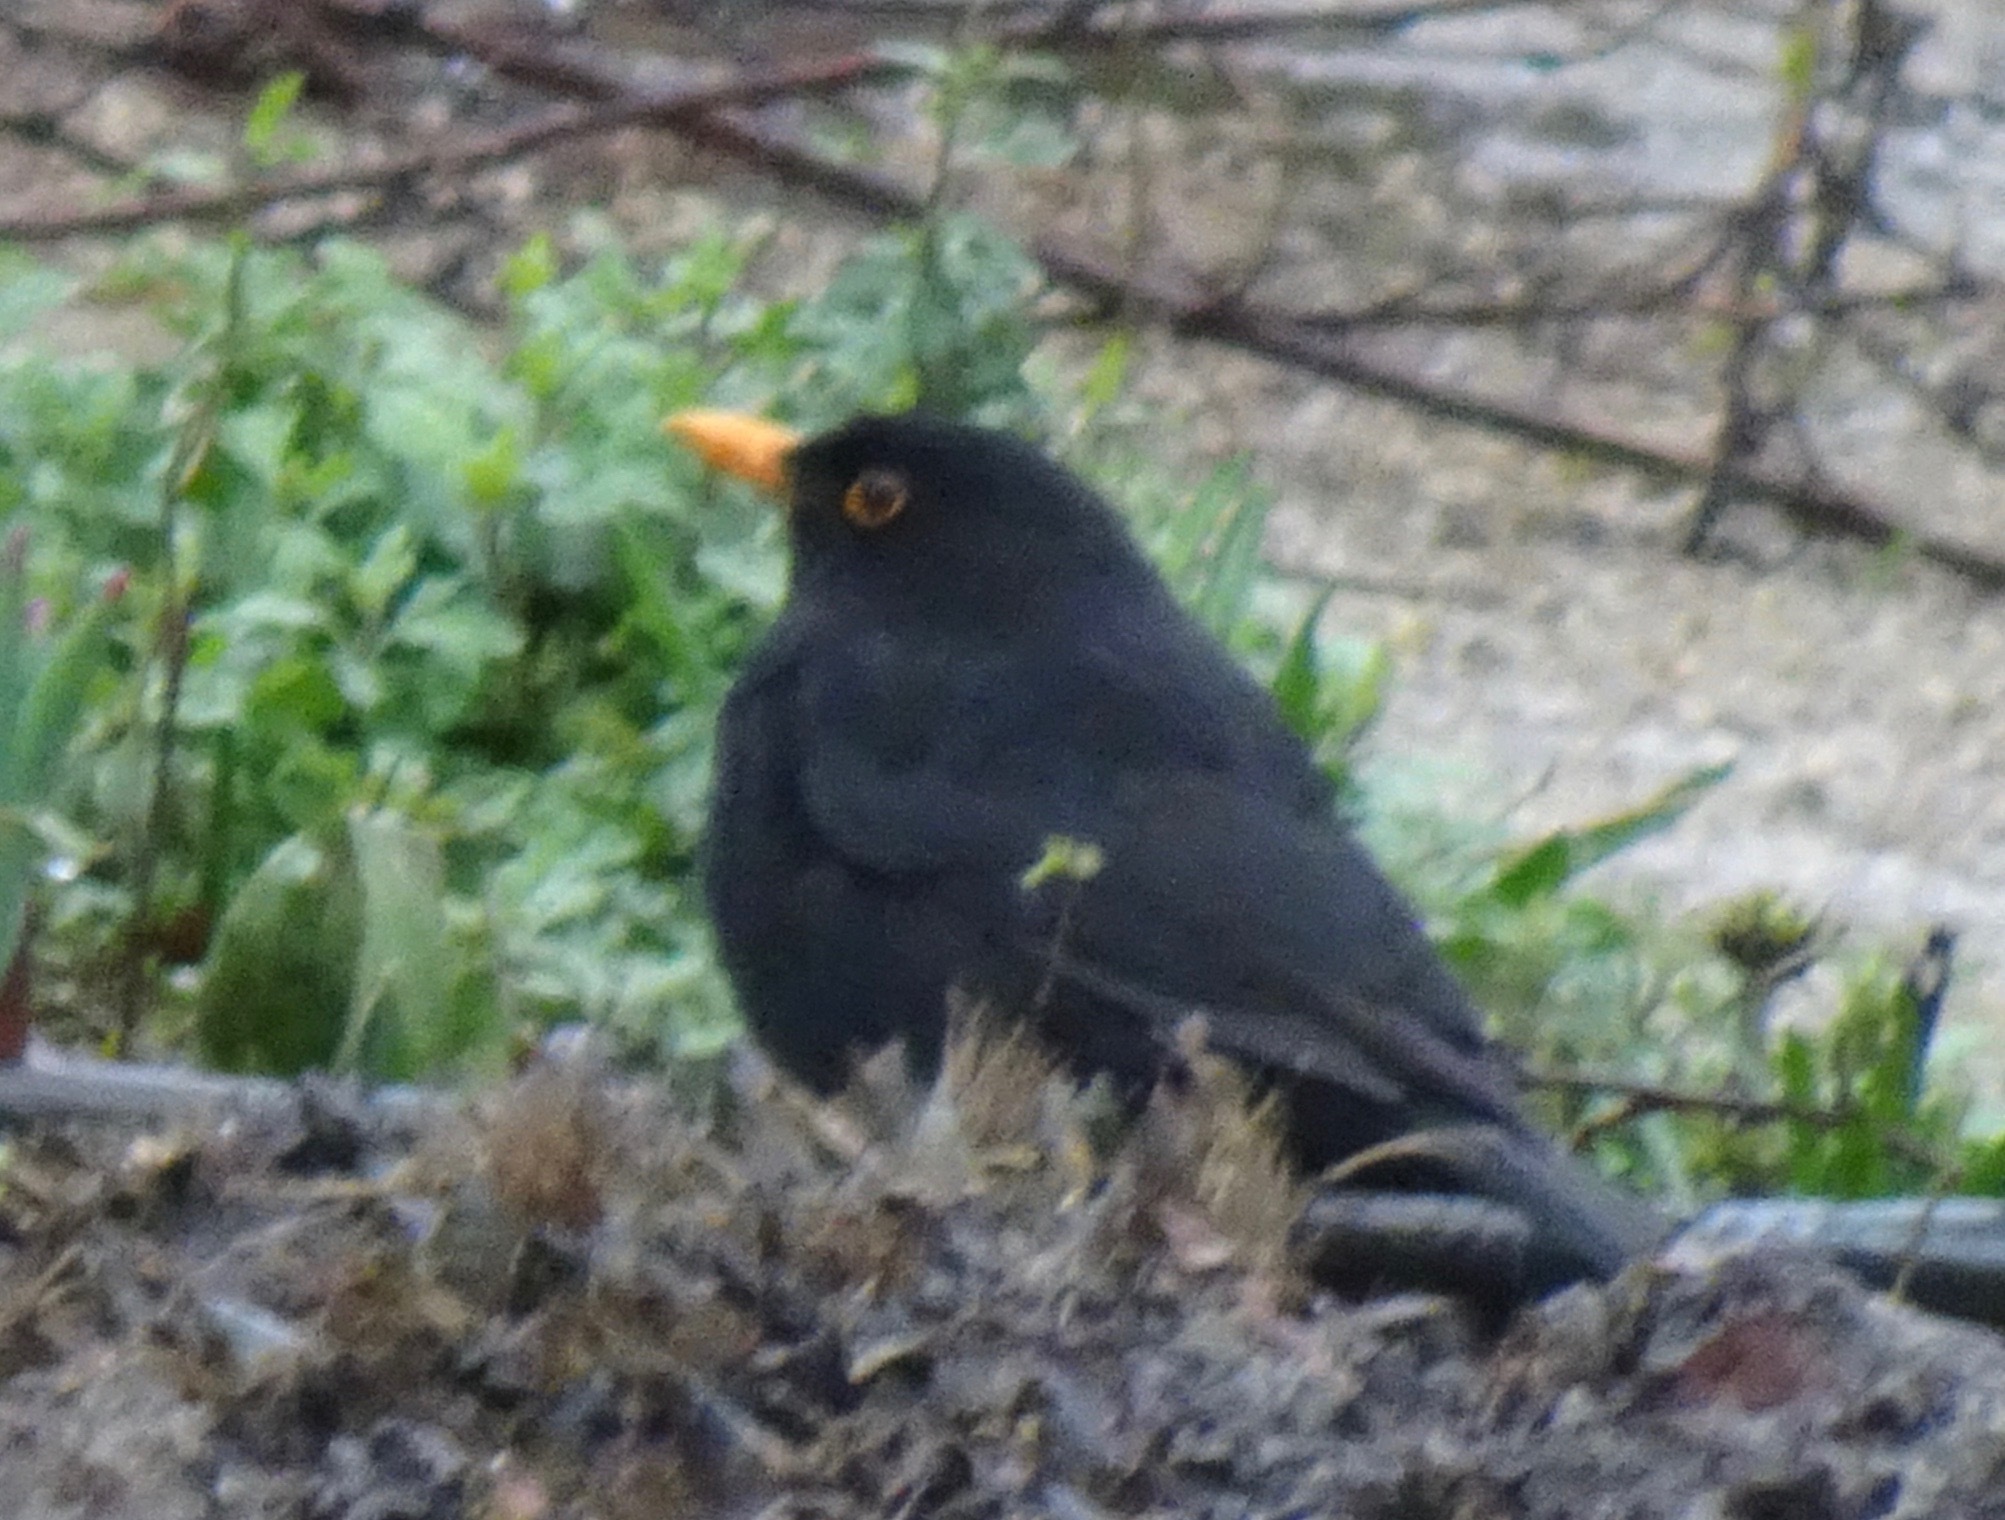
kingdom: Animalia
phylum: Chordata
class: Aves
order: Passeriformes
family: Turdidae
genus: Turdus
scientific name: Turdus merula
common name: Common blackbird
